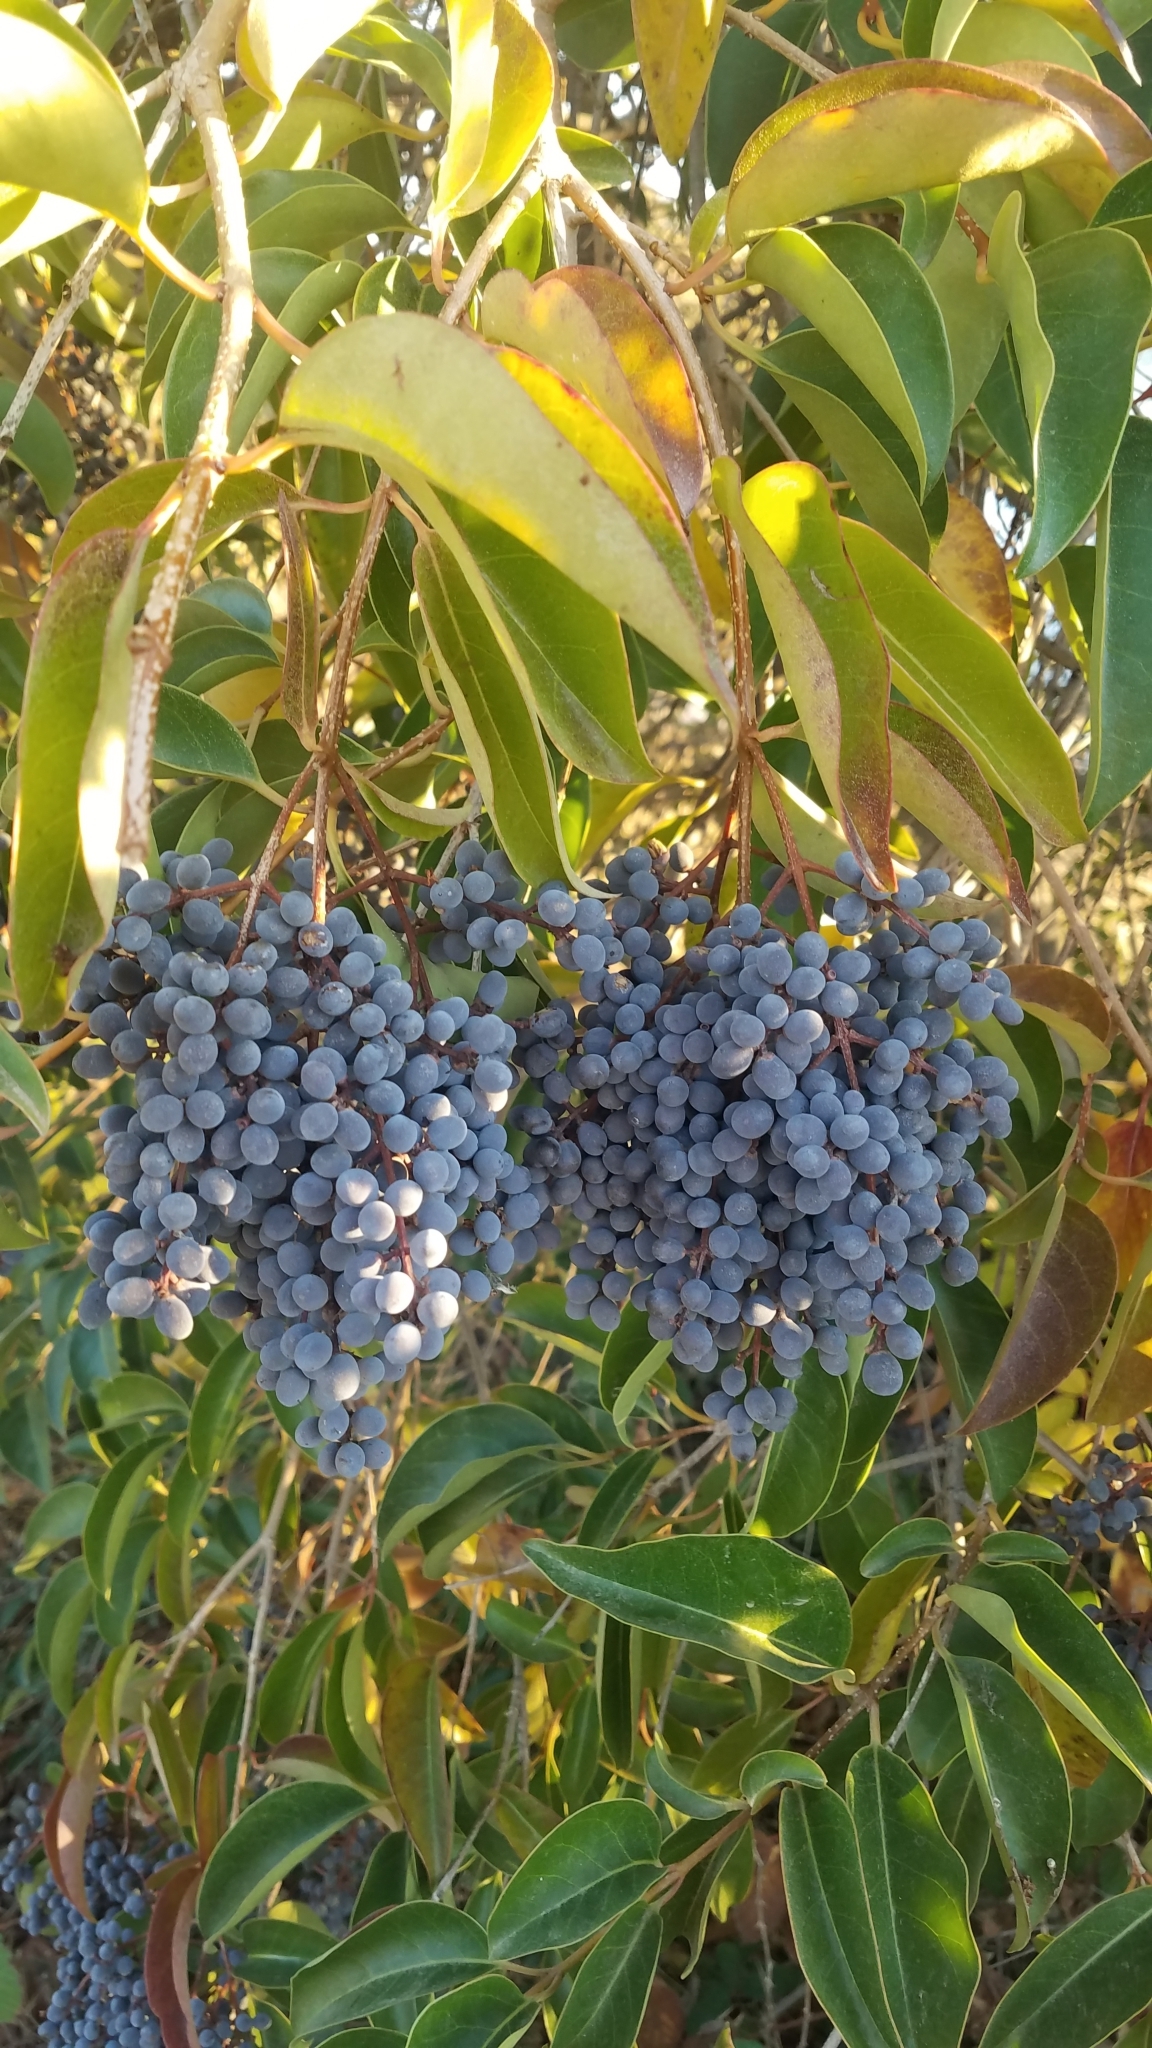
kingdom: Plantae
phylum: Tracheophyta
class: Magnoliopsida
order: Lamiales
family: Oleaceae
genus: Ligustrum
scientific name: Ligustrum lucidum
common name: Glossy privet
